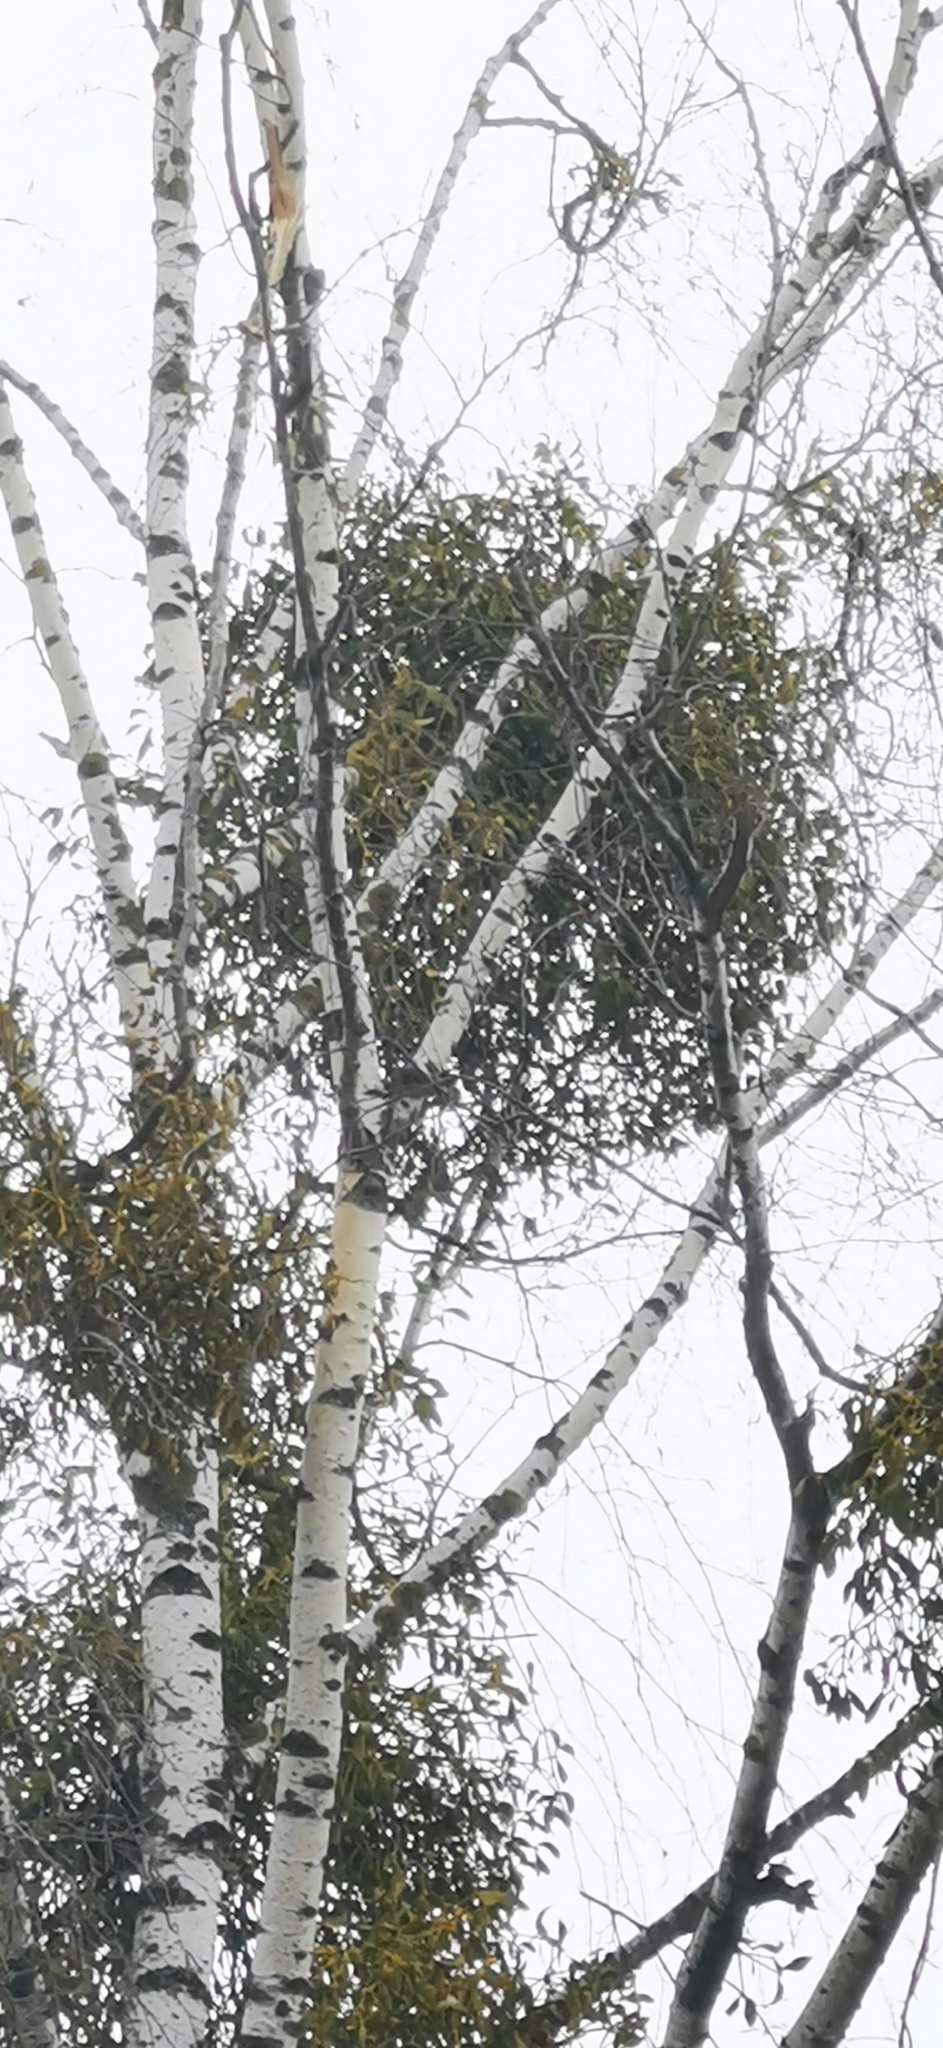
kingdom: Plantae
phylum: Tracheophyta
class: Magnoliopsida
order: Santalales
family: Viscaceae
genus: Viscum
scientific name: Viscum album
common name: Mistletoe
